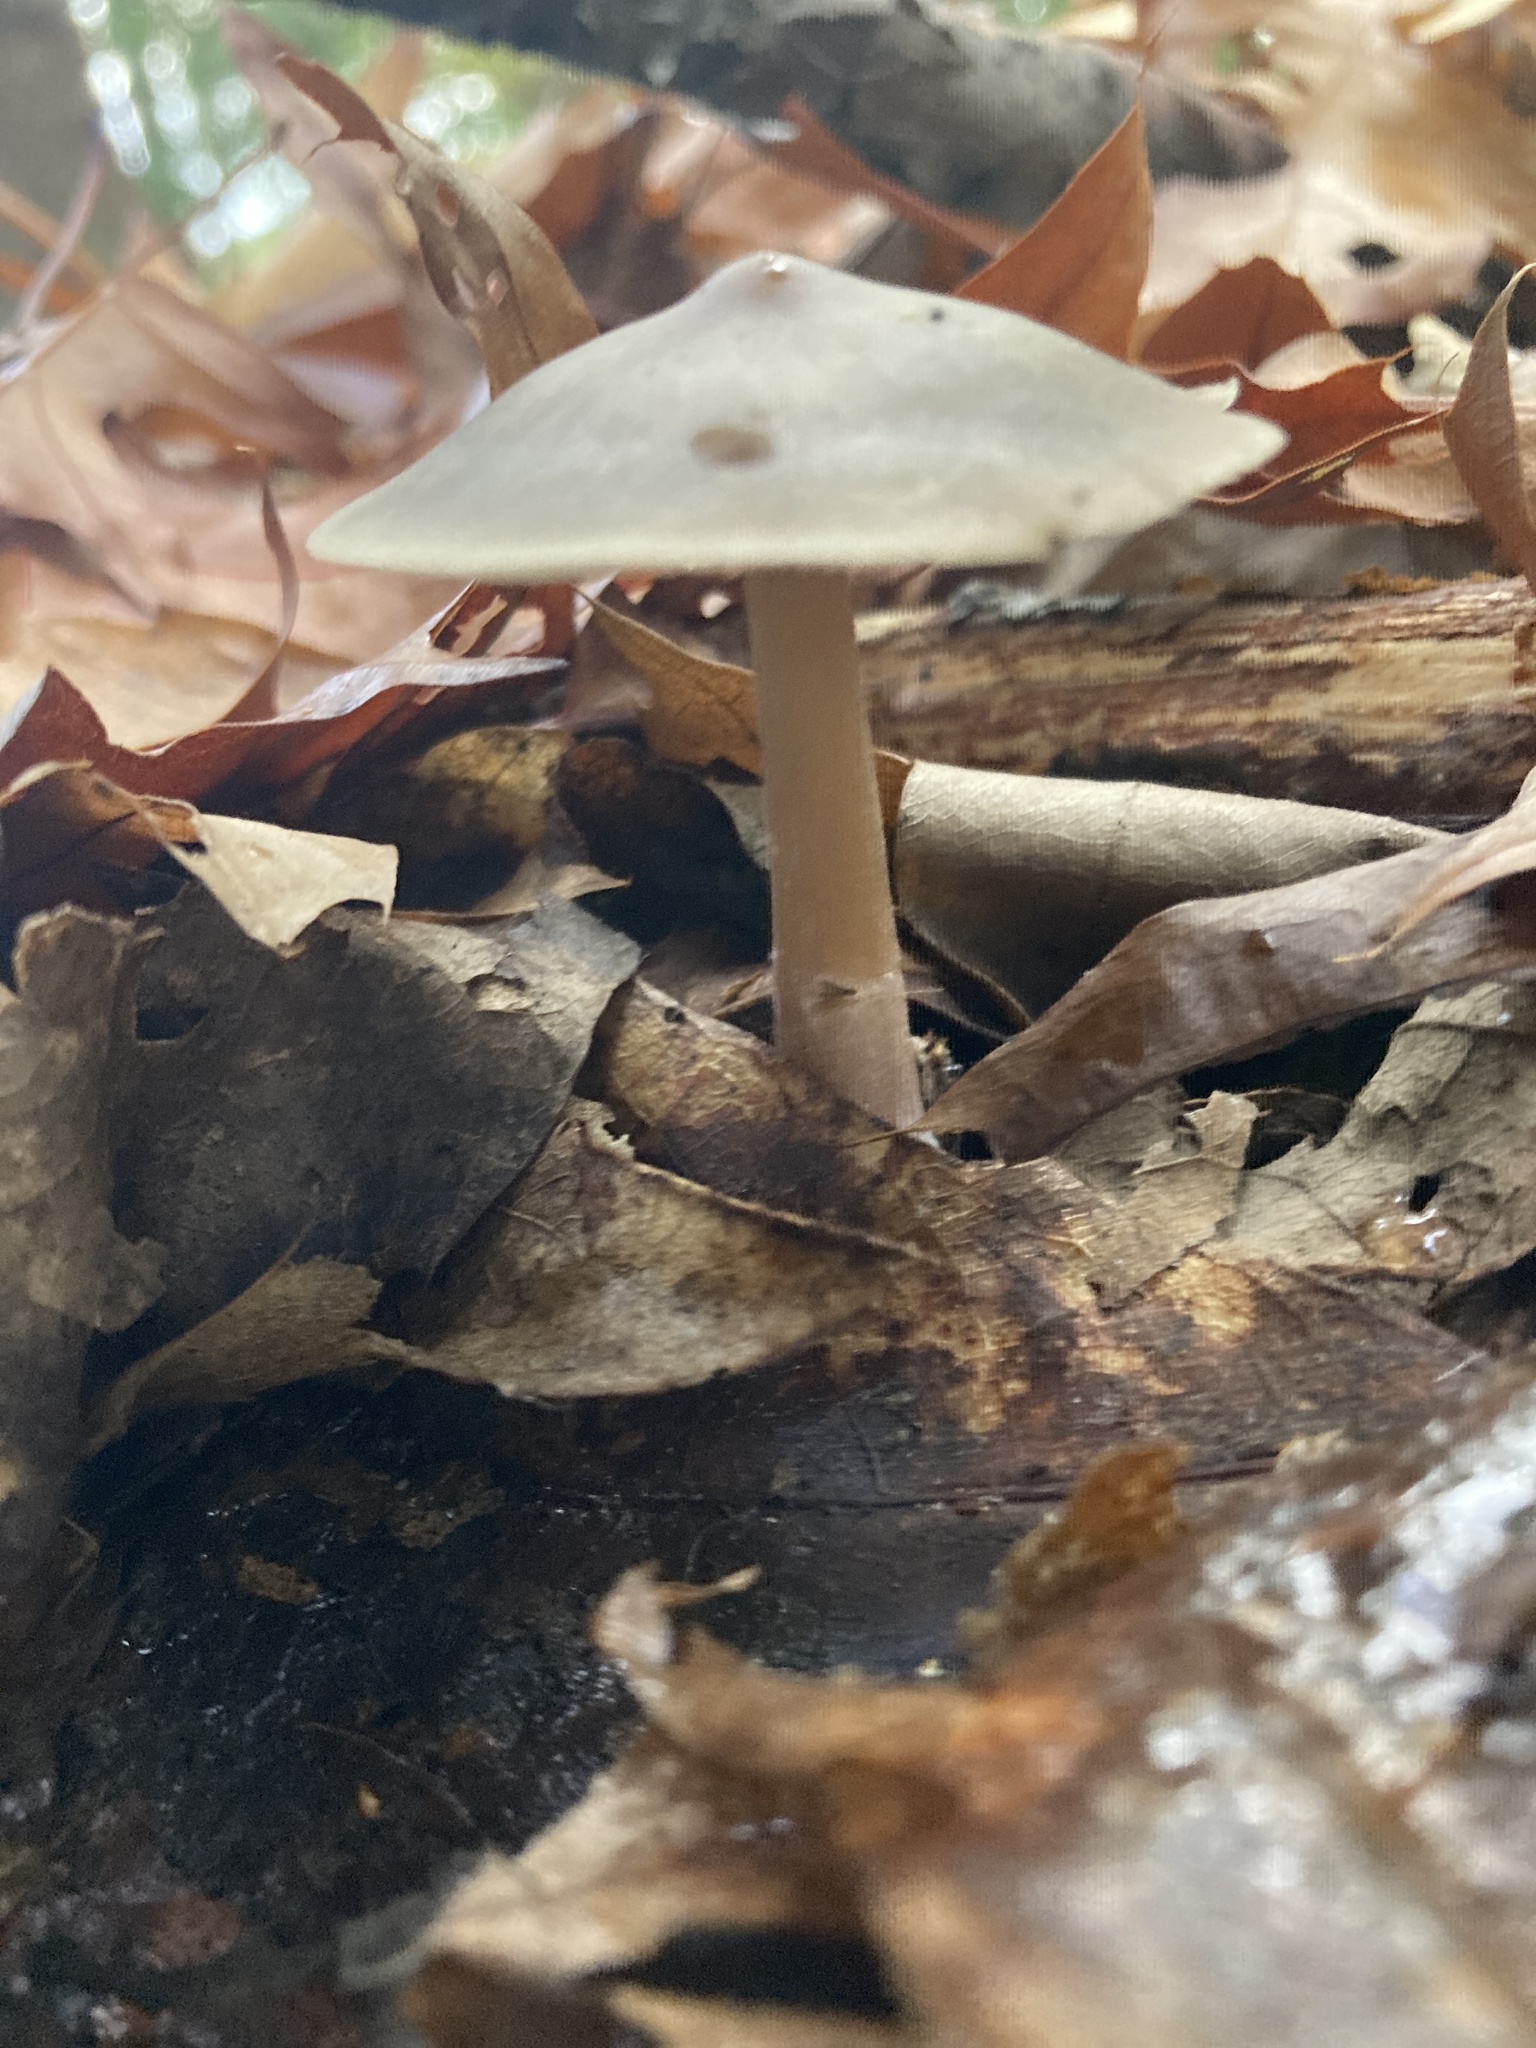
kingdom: Fungi
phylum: Basidiomycota
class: Agaricomycetes
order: Agaricales
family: Omphalotaceae
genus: Rhodocollybia
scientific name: Rhodocollybia butyracea
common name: Butter cap
